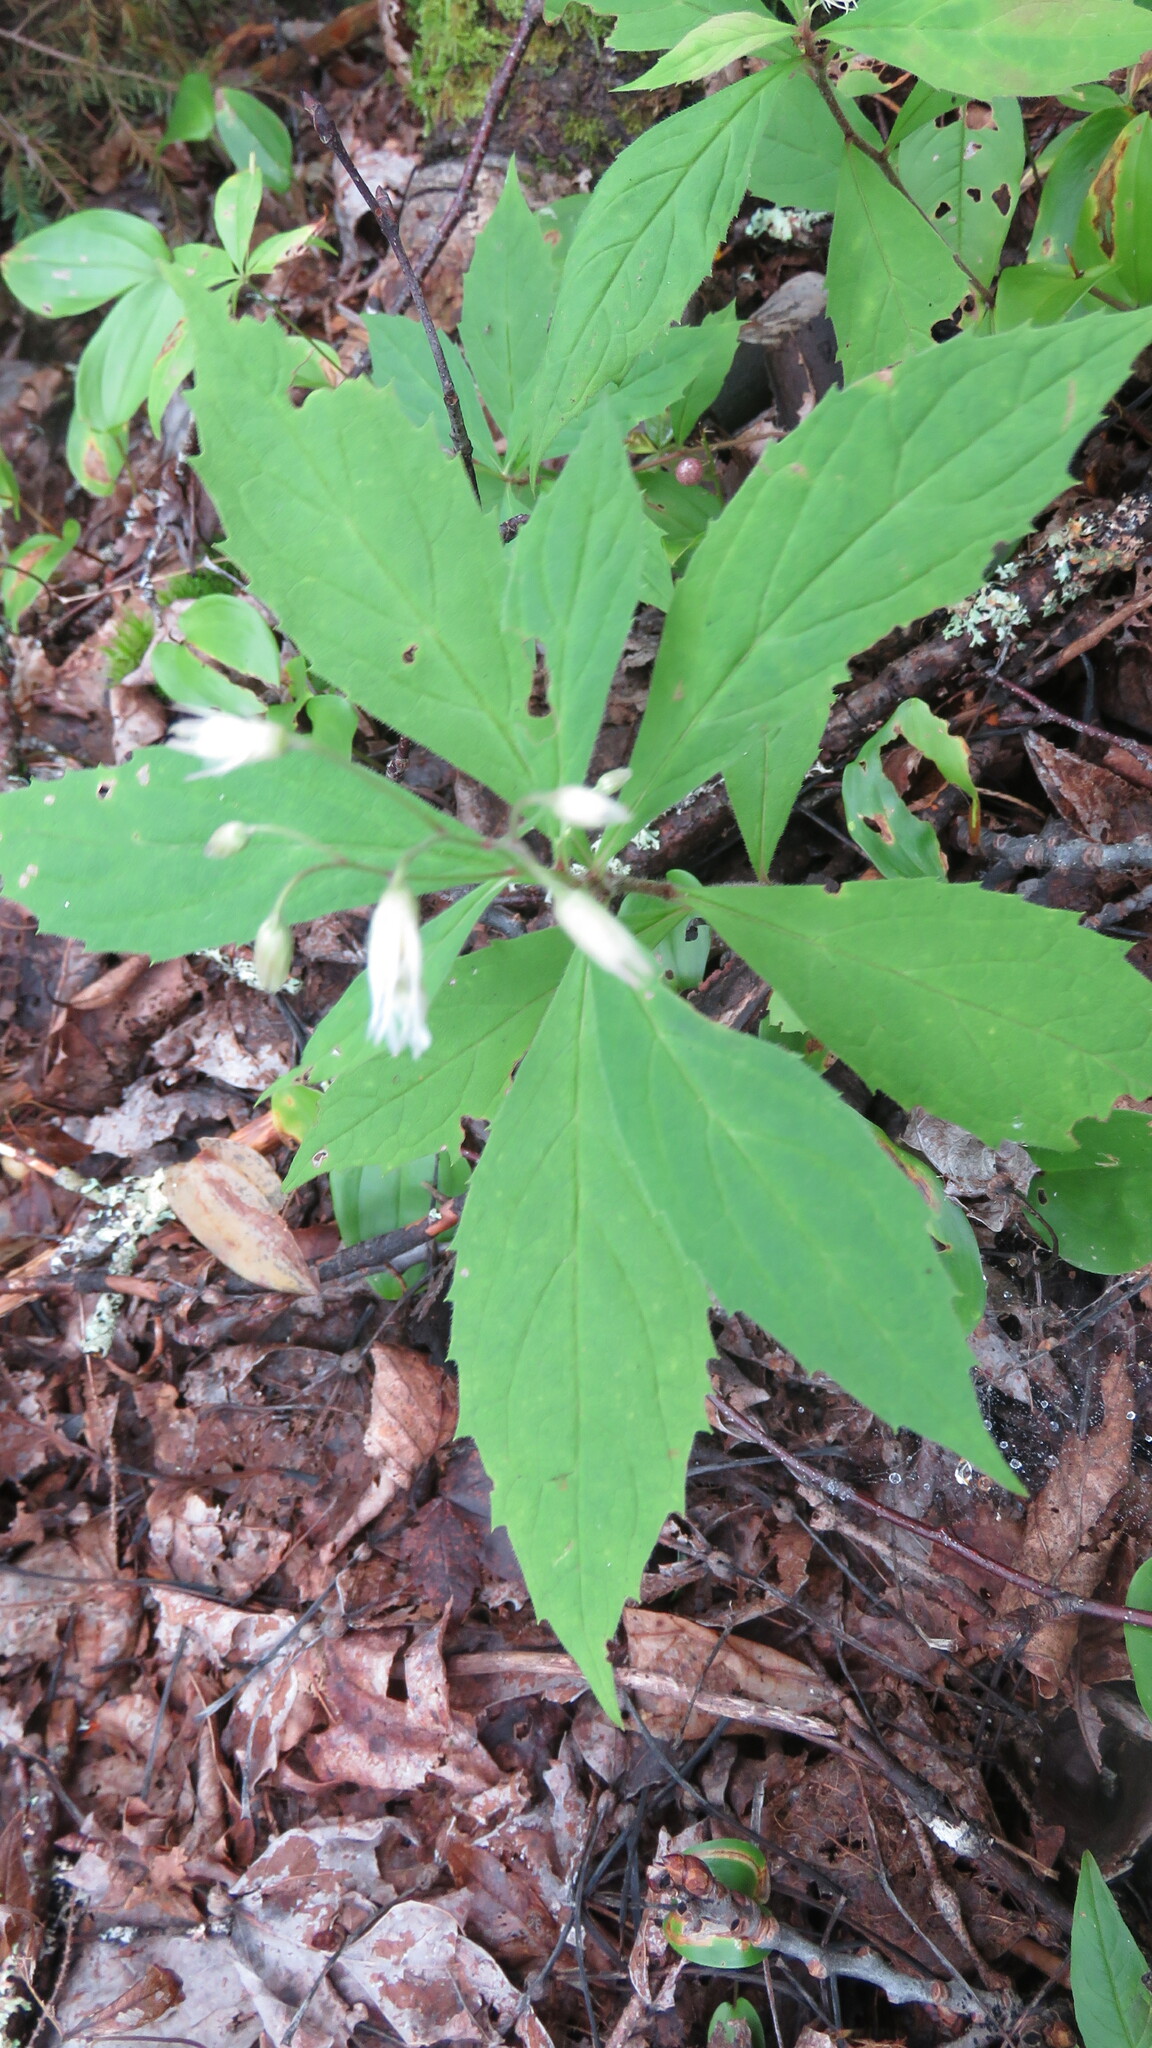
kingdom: Plantae
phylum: Tracheophyta
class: Magnoliopsida
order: Asterales
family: Asteraceae
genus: Oclemena
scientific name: Oclemena acuminata
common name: Mountain aster
